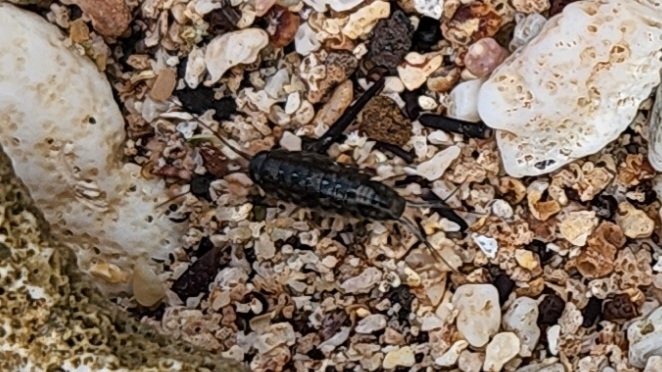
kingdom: Animalia
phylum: Arthropoda
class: Malacostraca
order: Isopoda
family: Ligiidae
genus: Ligia
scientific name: Ligia exotica
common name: Wharf roach
